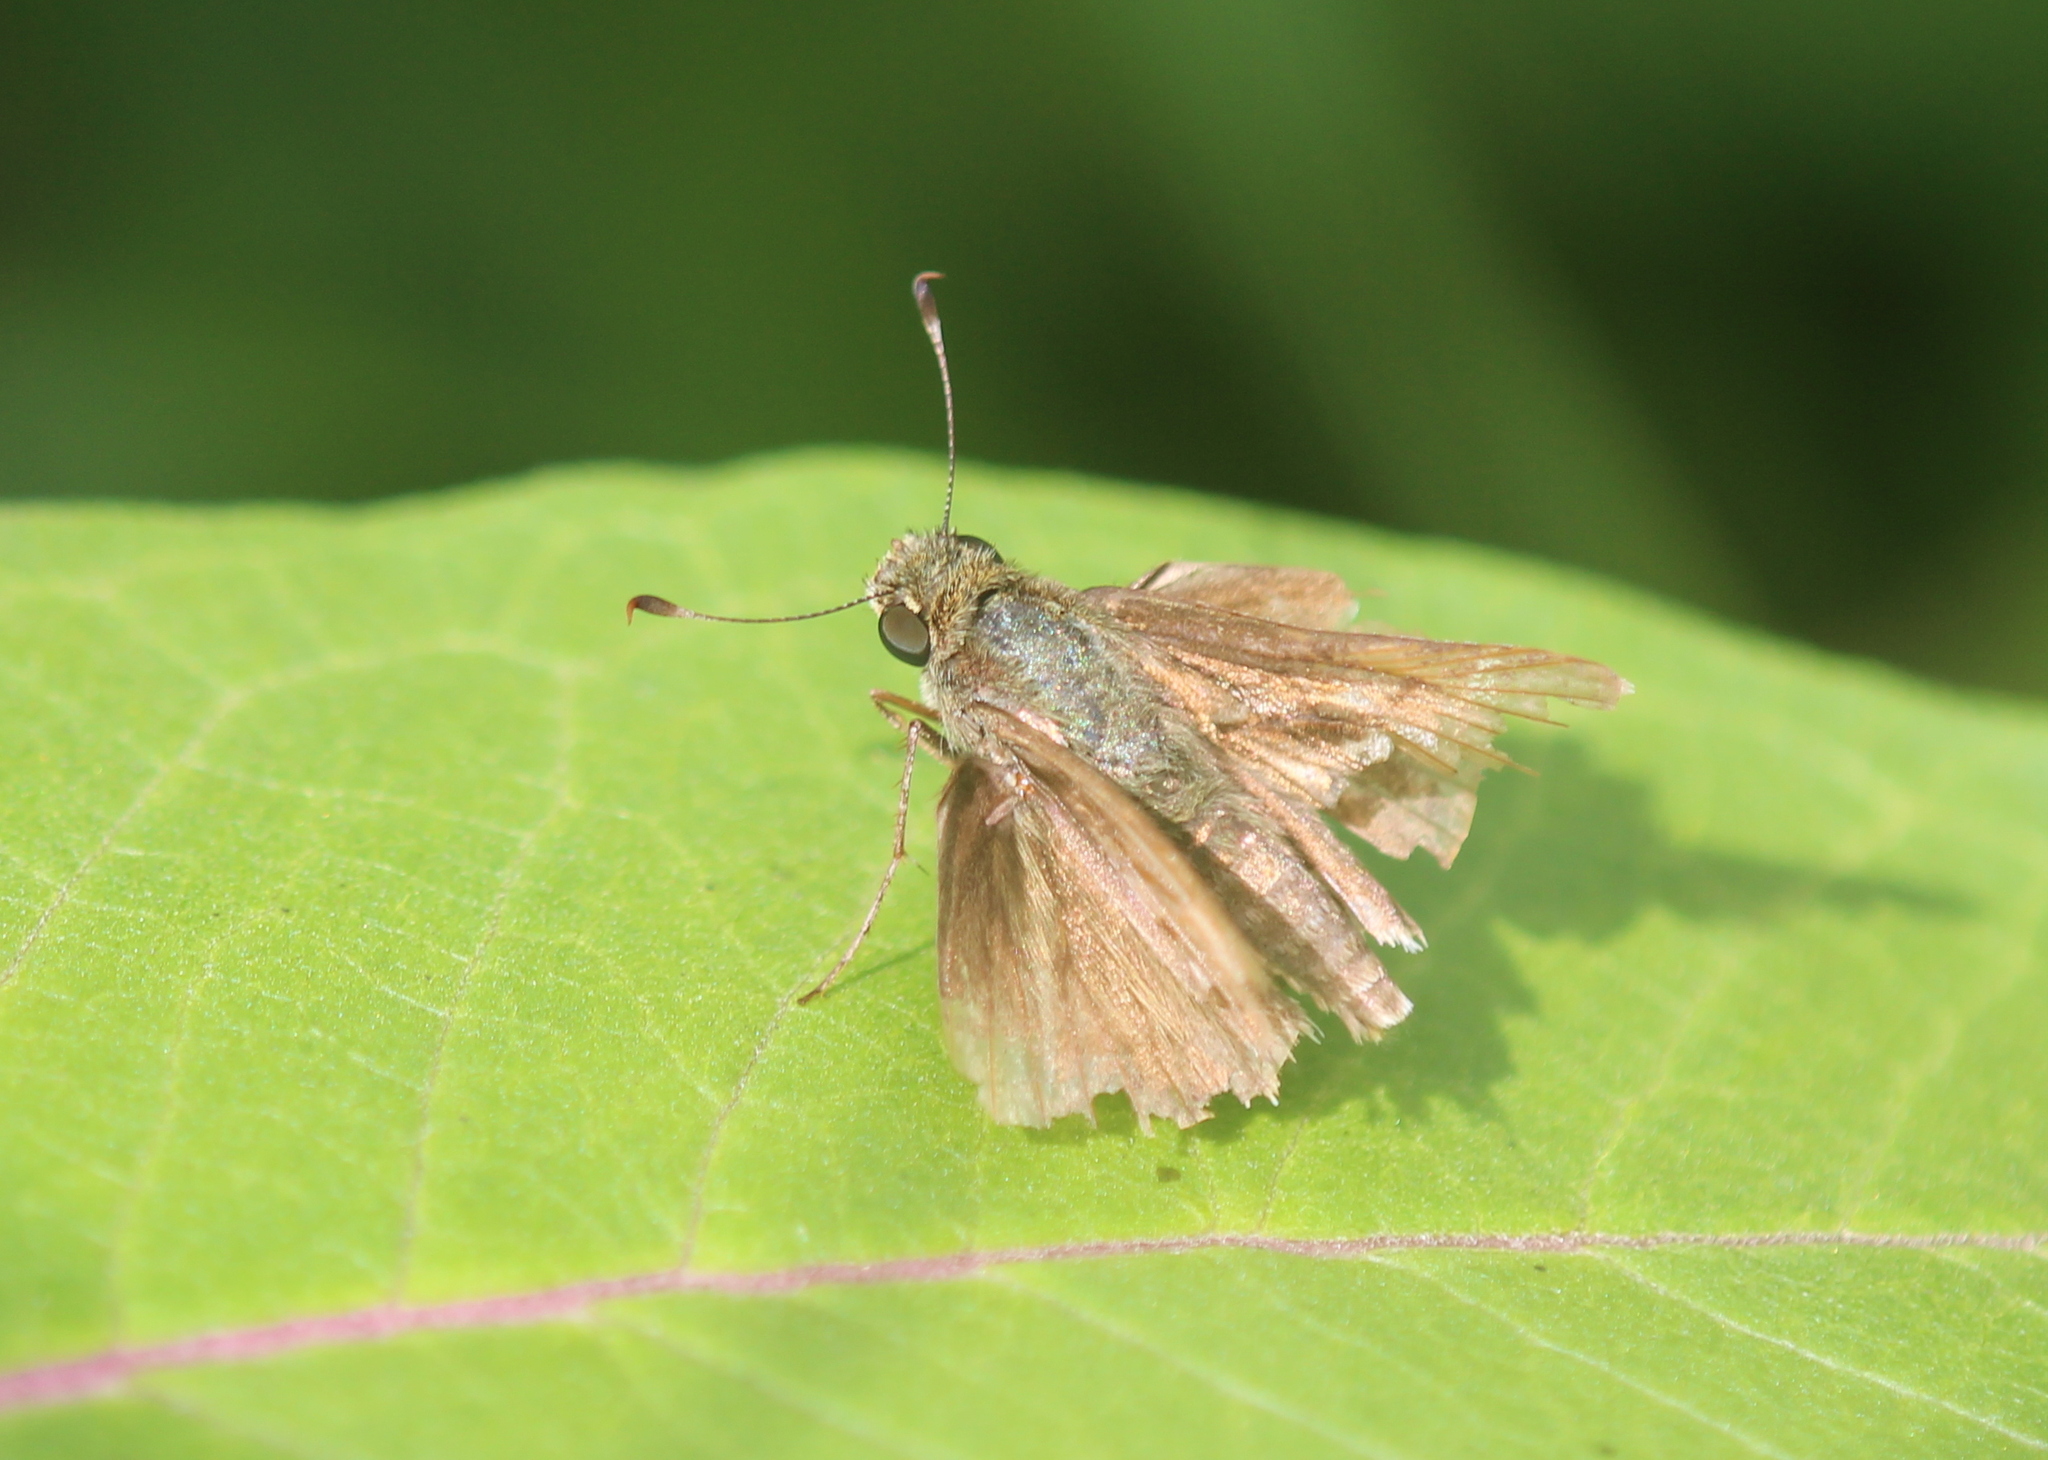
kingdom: Animalia
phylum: Arthropoda
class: Insecta
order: Lepidoptera
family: Hesperiidae
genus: Vernia
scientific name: Vernia verna
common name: Little glassywing
